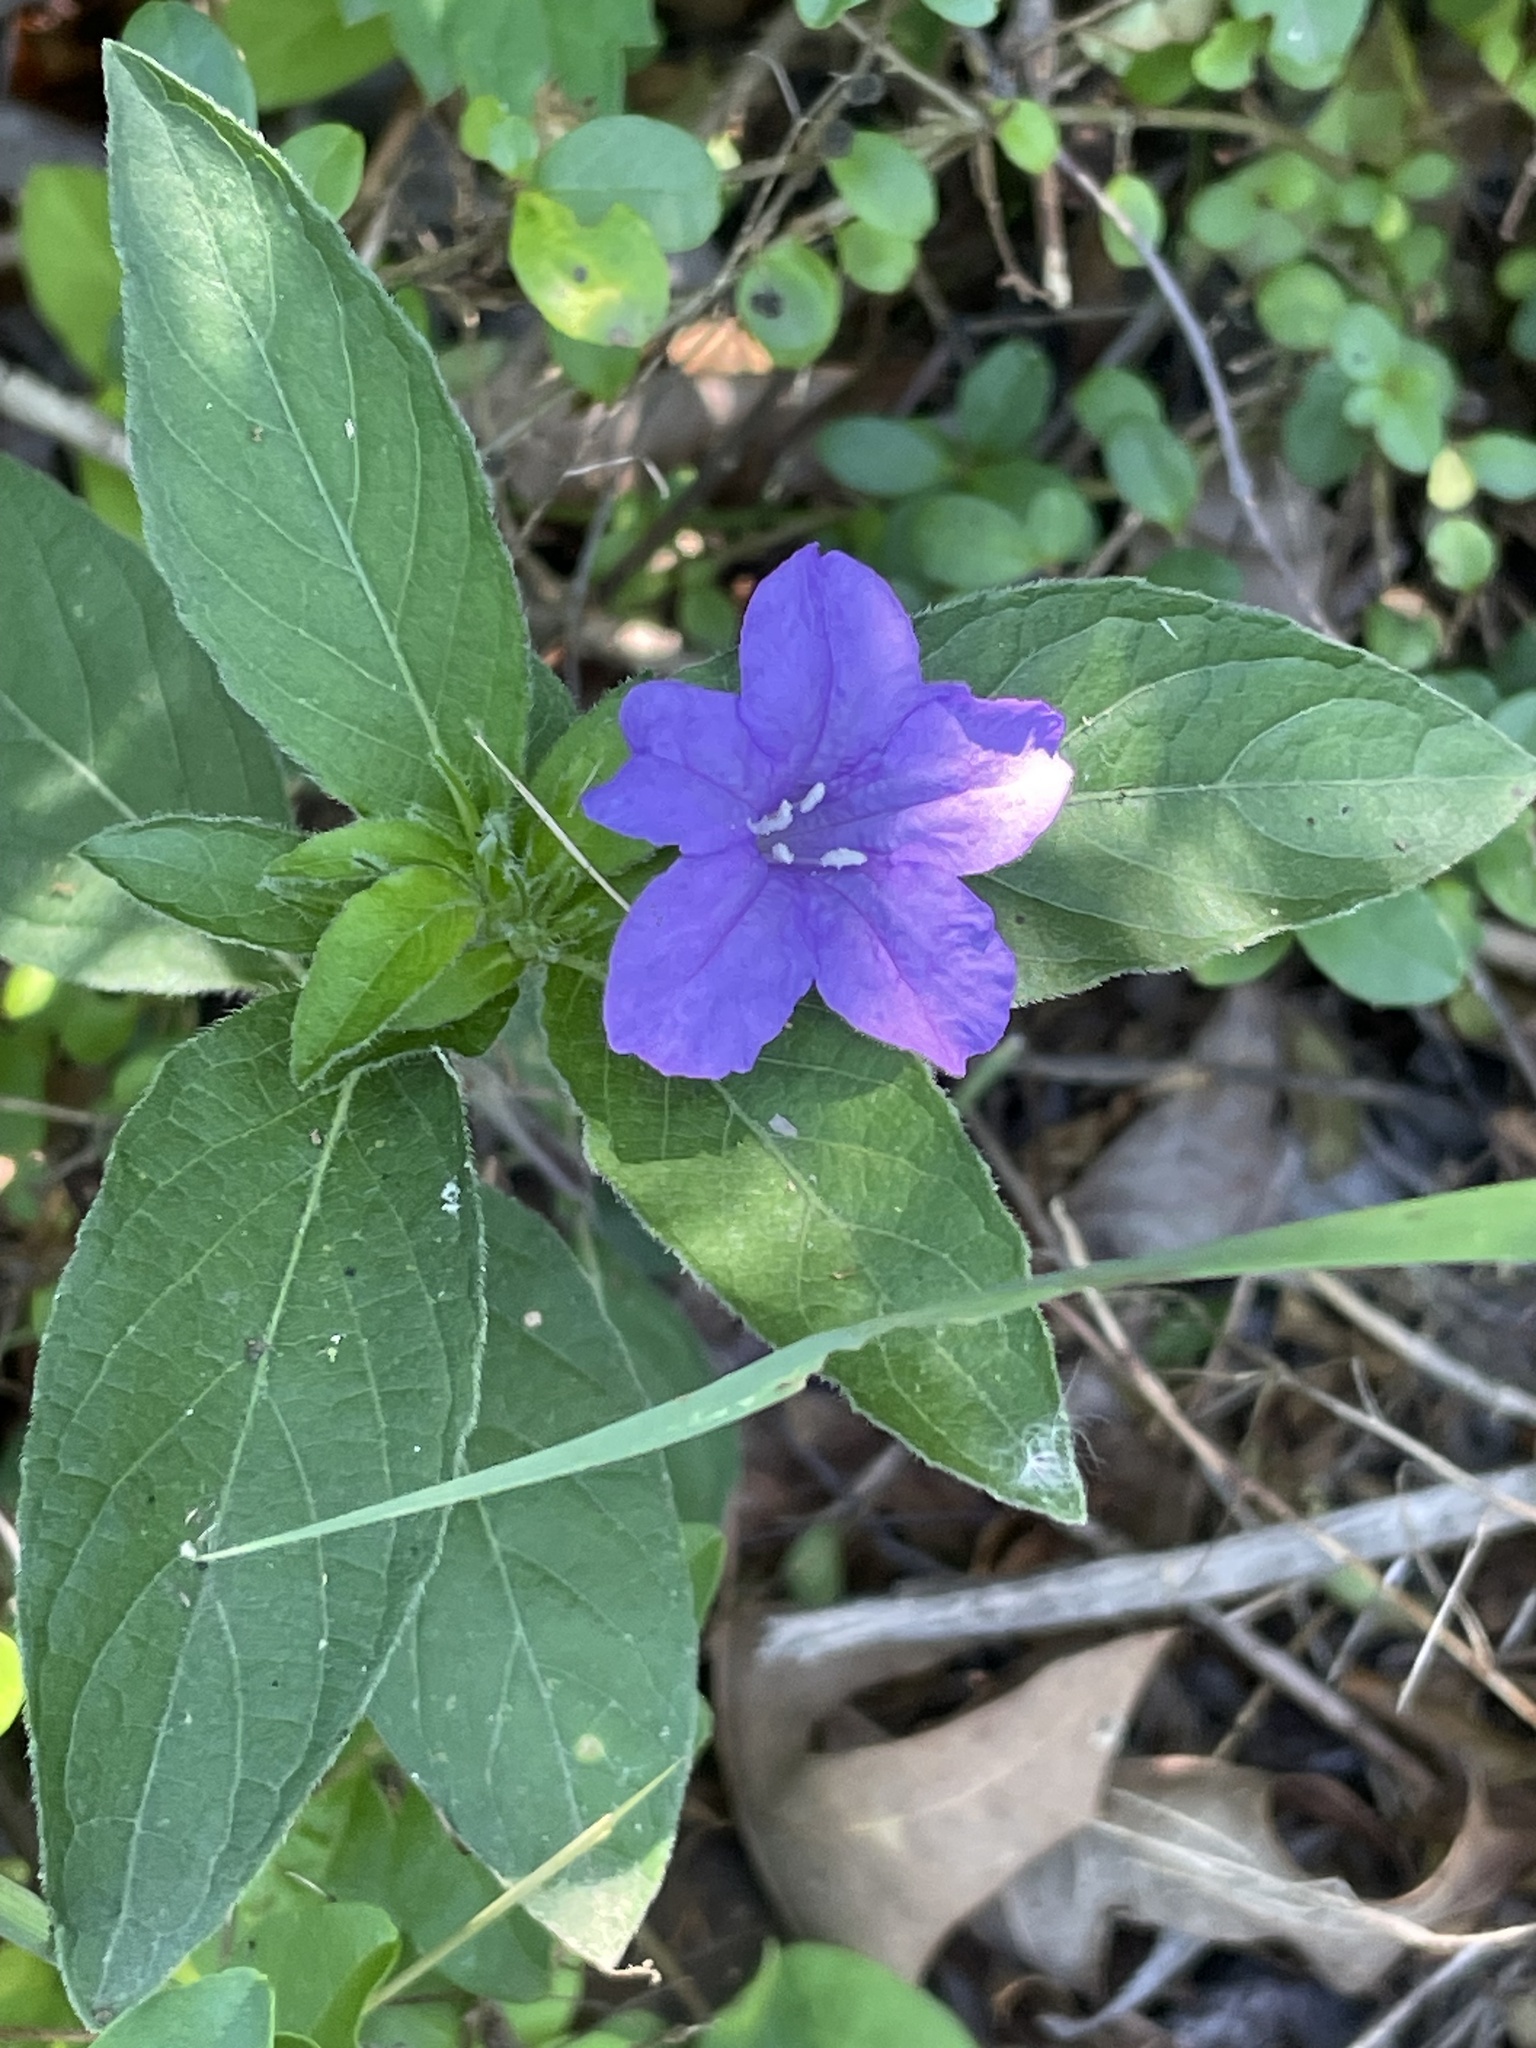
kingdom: Plantae
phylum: Tracheophyta
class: Magnoliopsida
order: Lamiales
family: Acanthaceae
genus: Ruellia
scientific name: Ruellia caroliniensis
